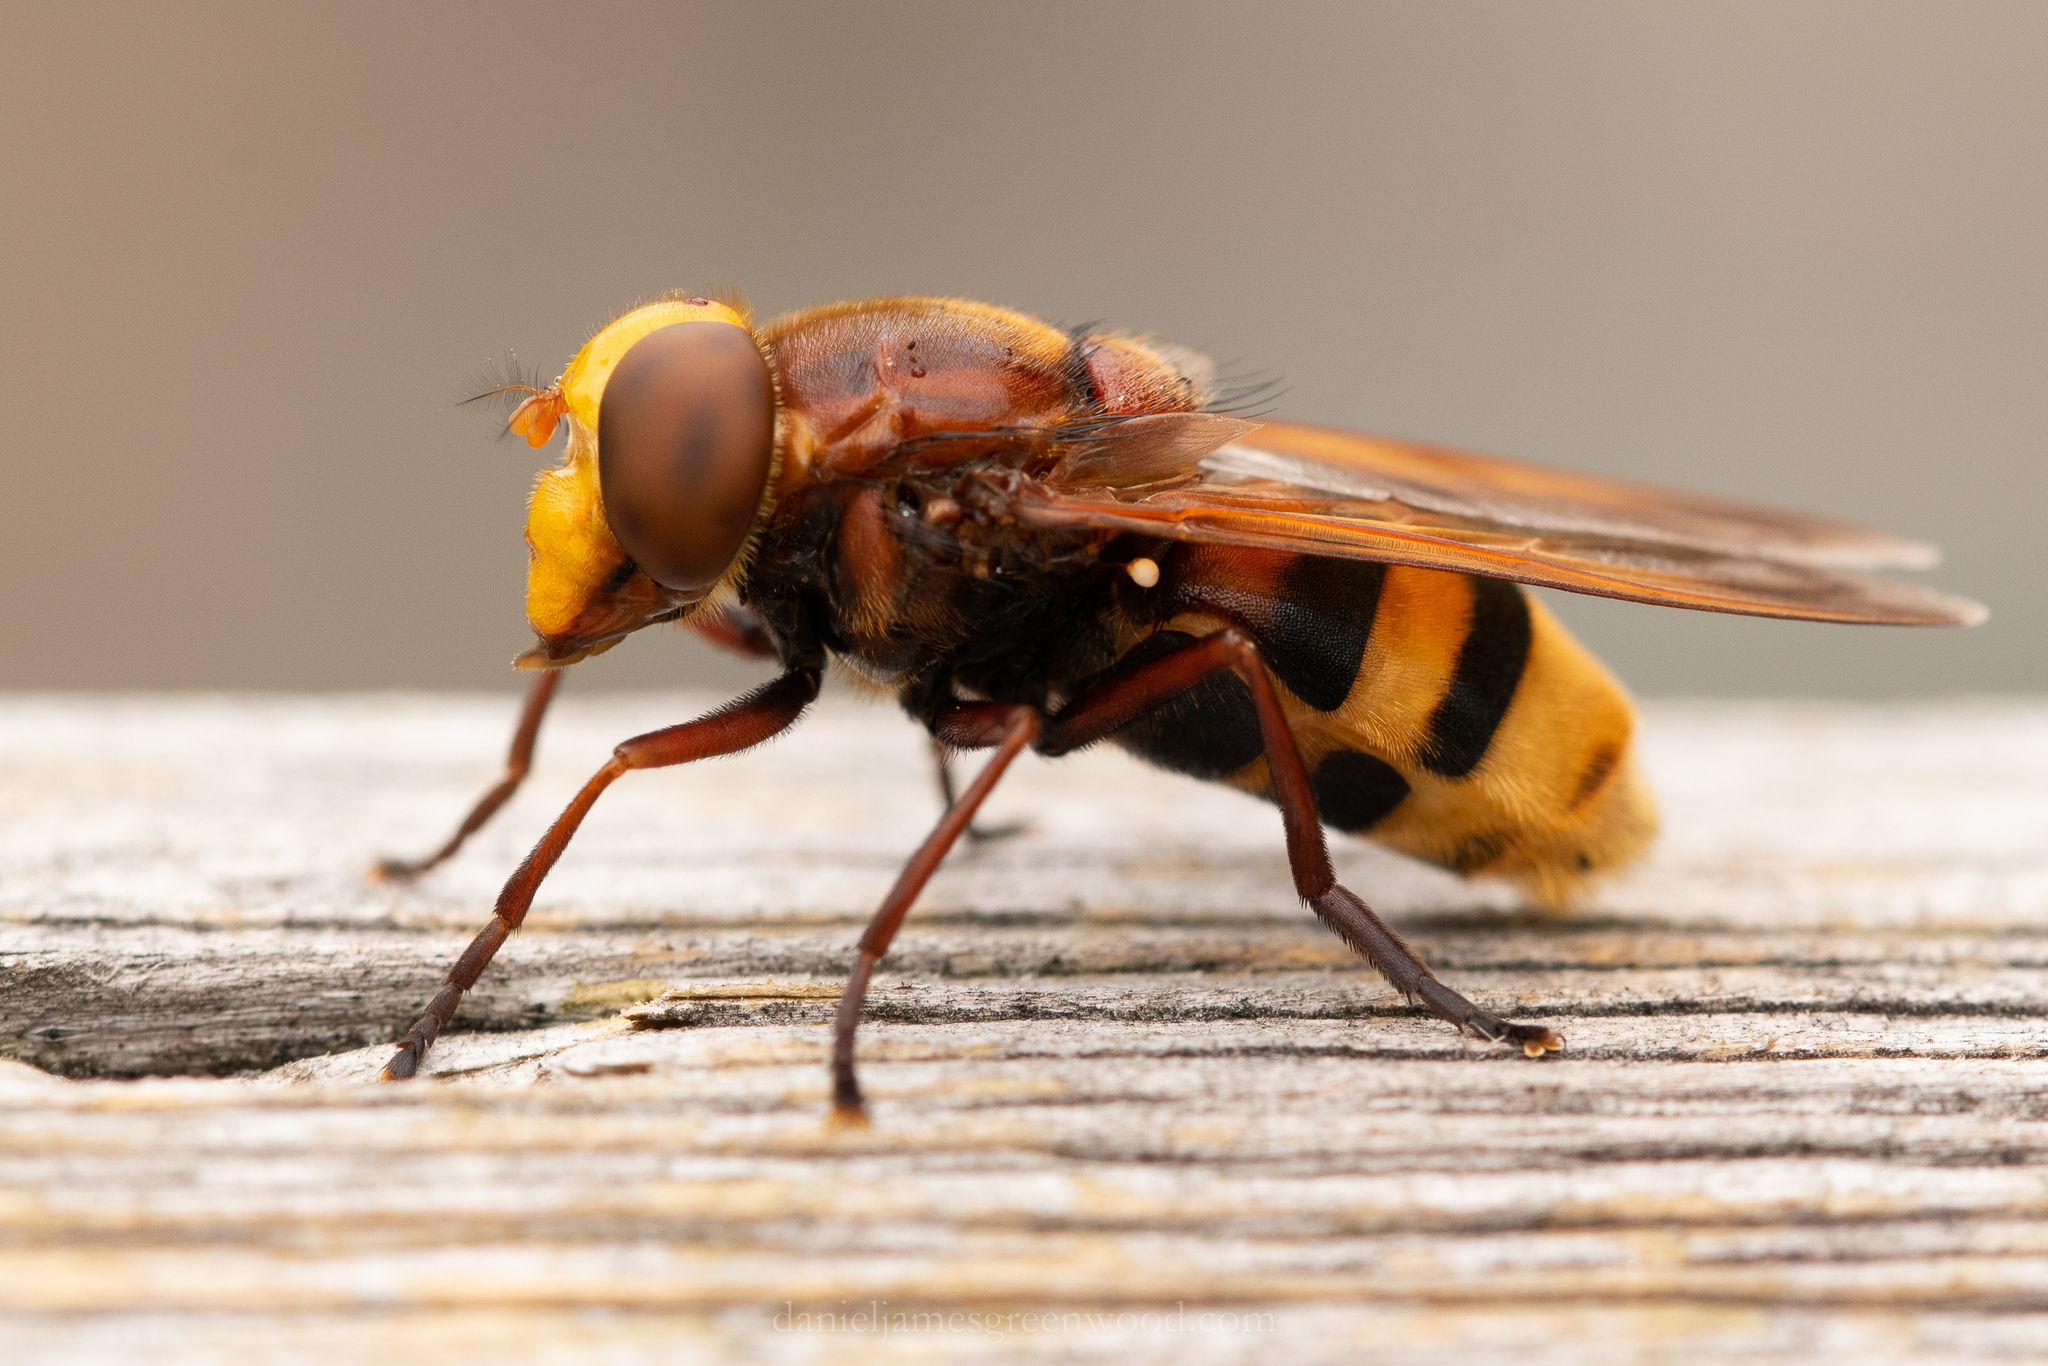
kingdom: Animalia
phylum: Arthropoda
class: Insecta
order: Diptera
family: Syrphidae
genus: Volucella
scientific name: Volucella zonaria
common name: Hornet hoverfly
